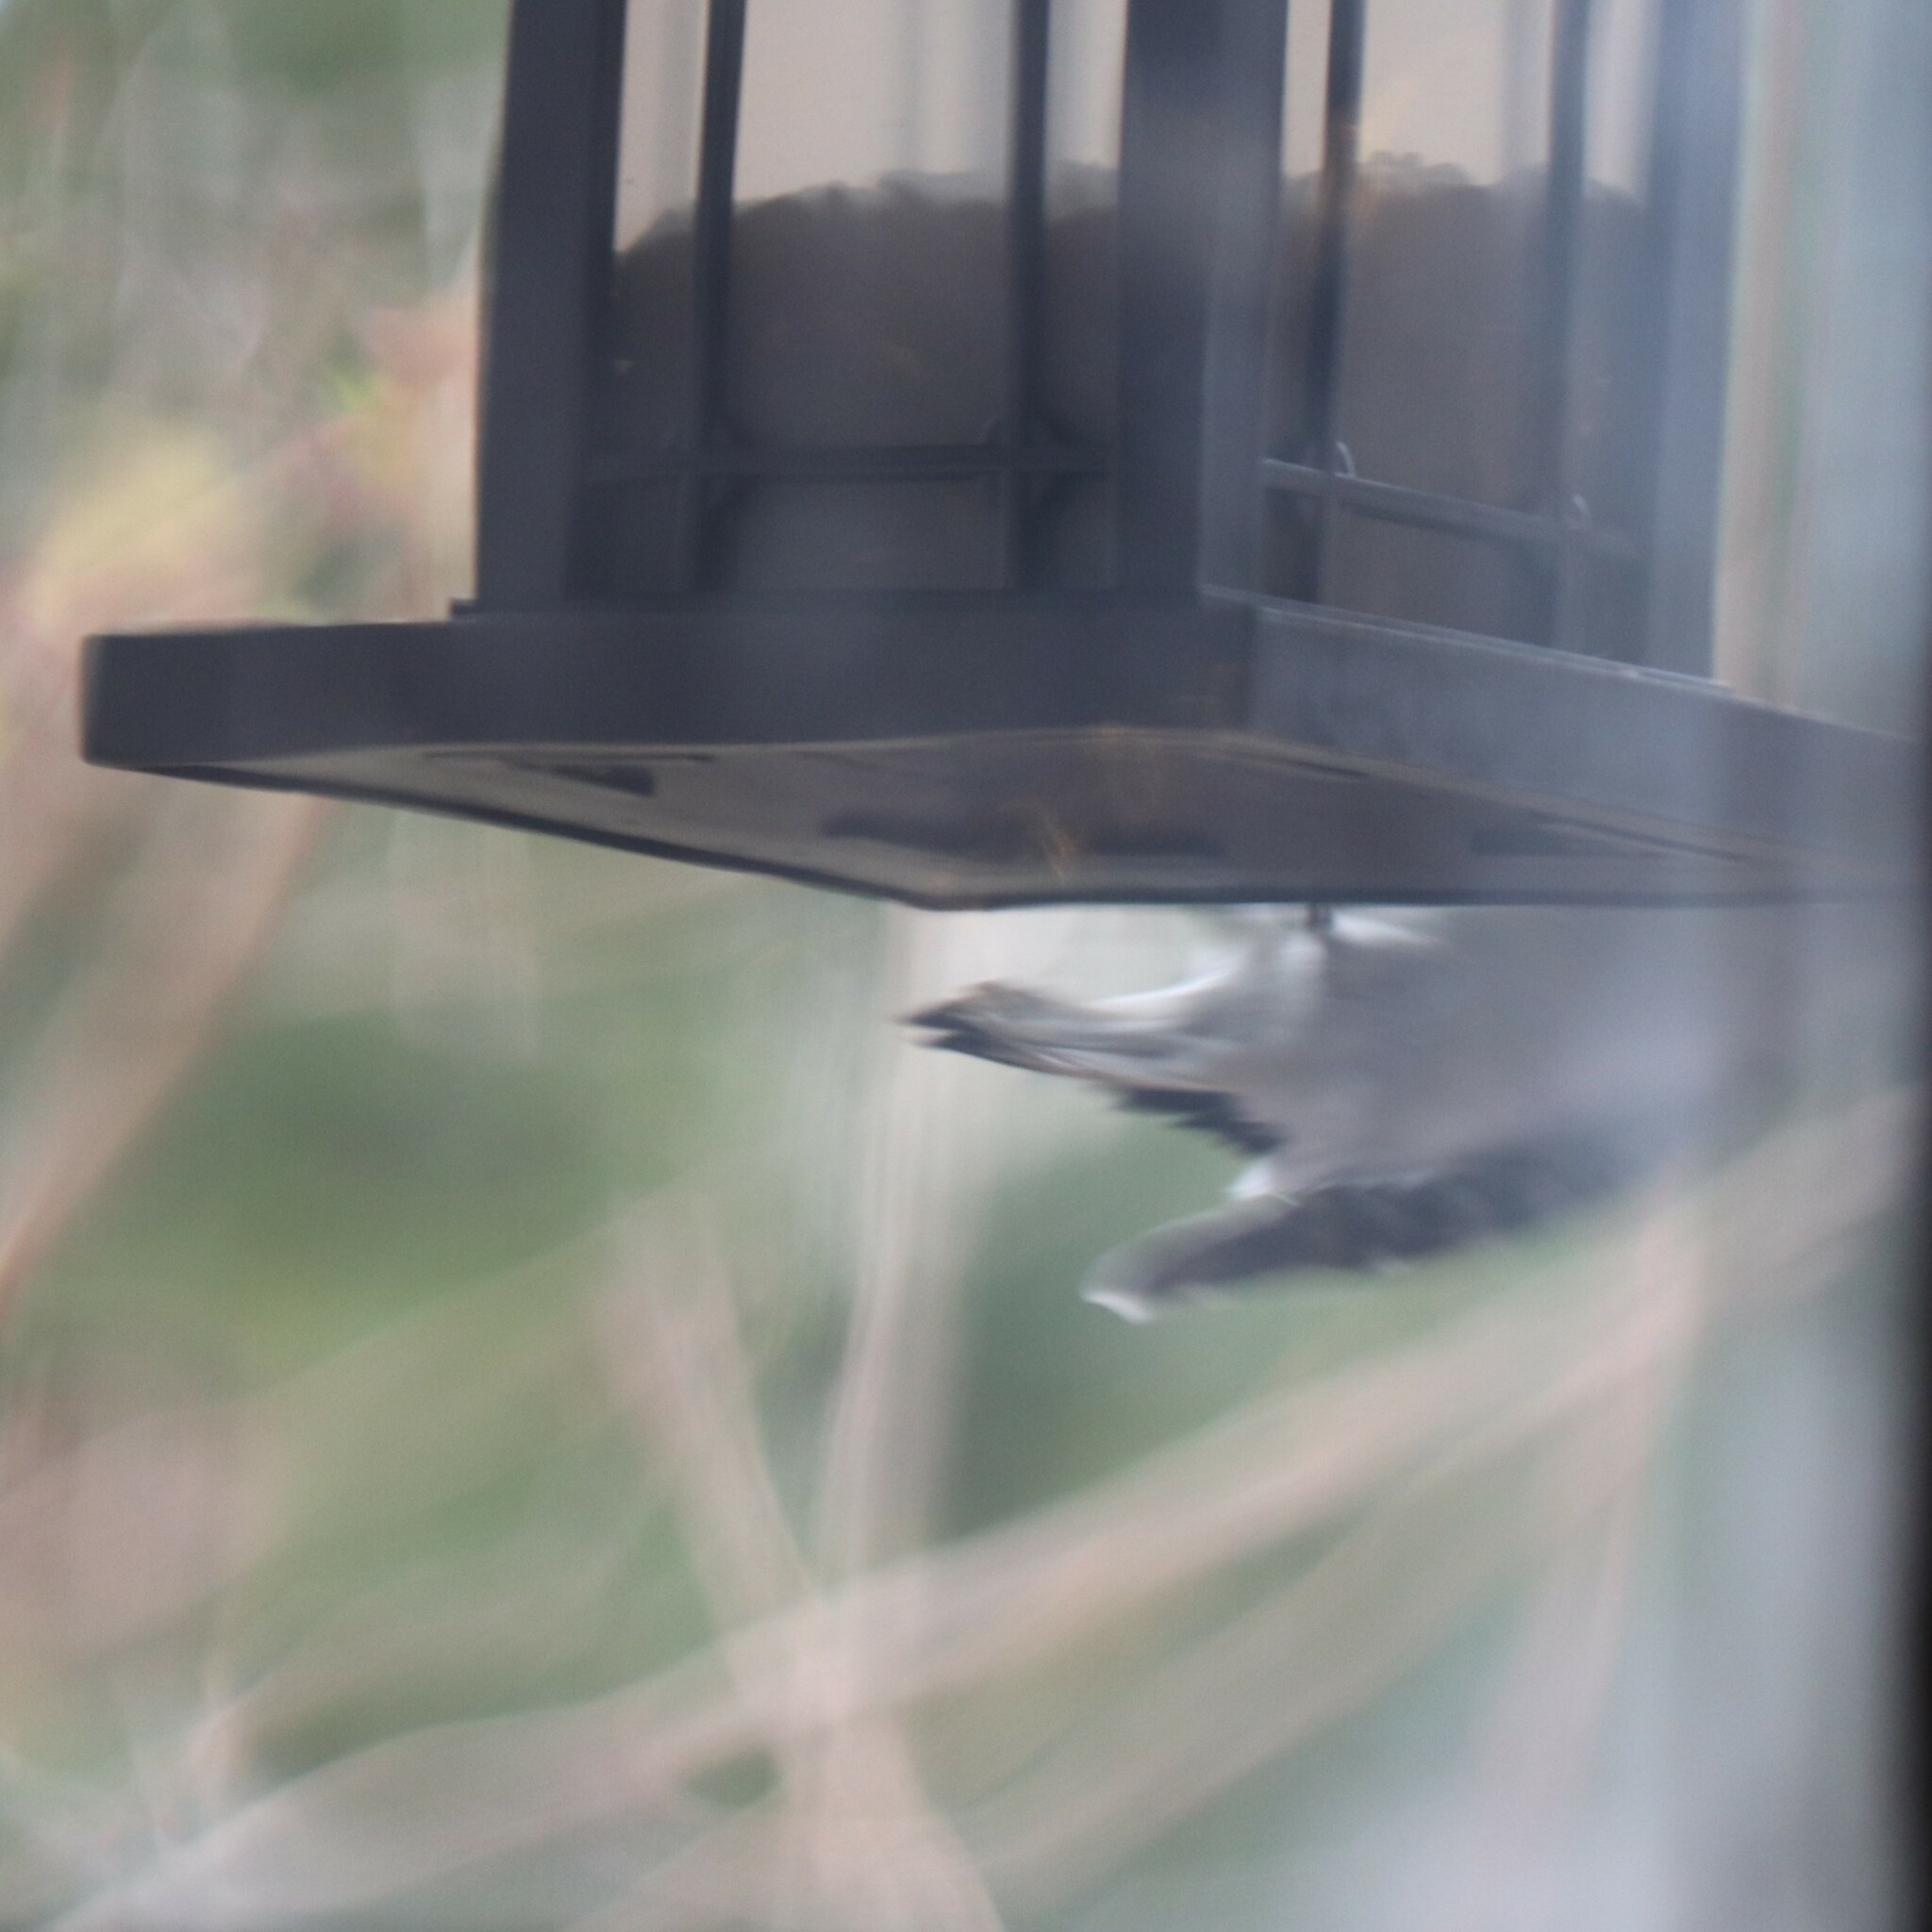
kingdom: Animalia
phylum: Chordata
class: Aves
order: Piciformes
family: Picidae
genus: Dryobates
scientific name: Dryobates pubescens
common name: Downy woodpecker
